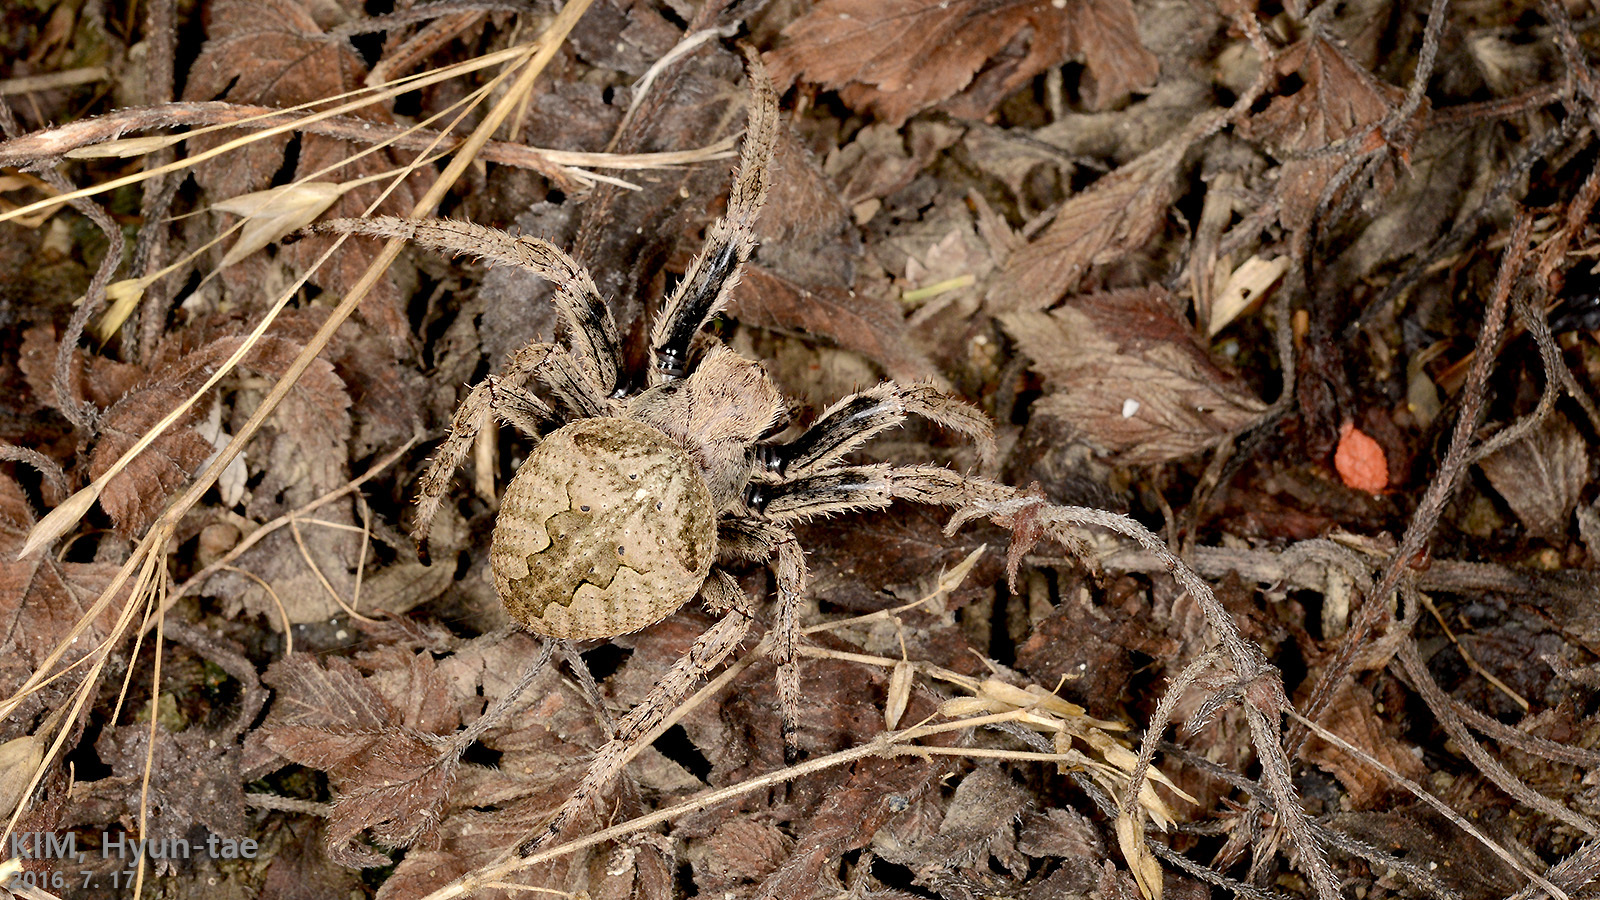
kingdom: Animalia
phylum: Arthropoda
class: Arachnida
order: Araneae
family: Araneidae
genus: Araneus
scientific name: Araneus ventricosus
